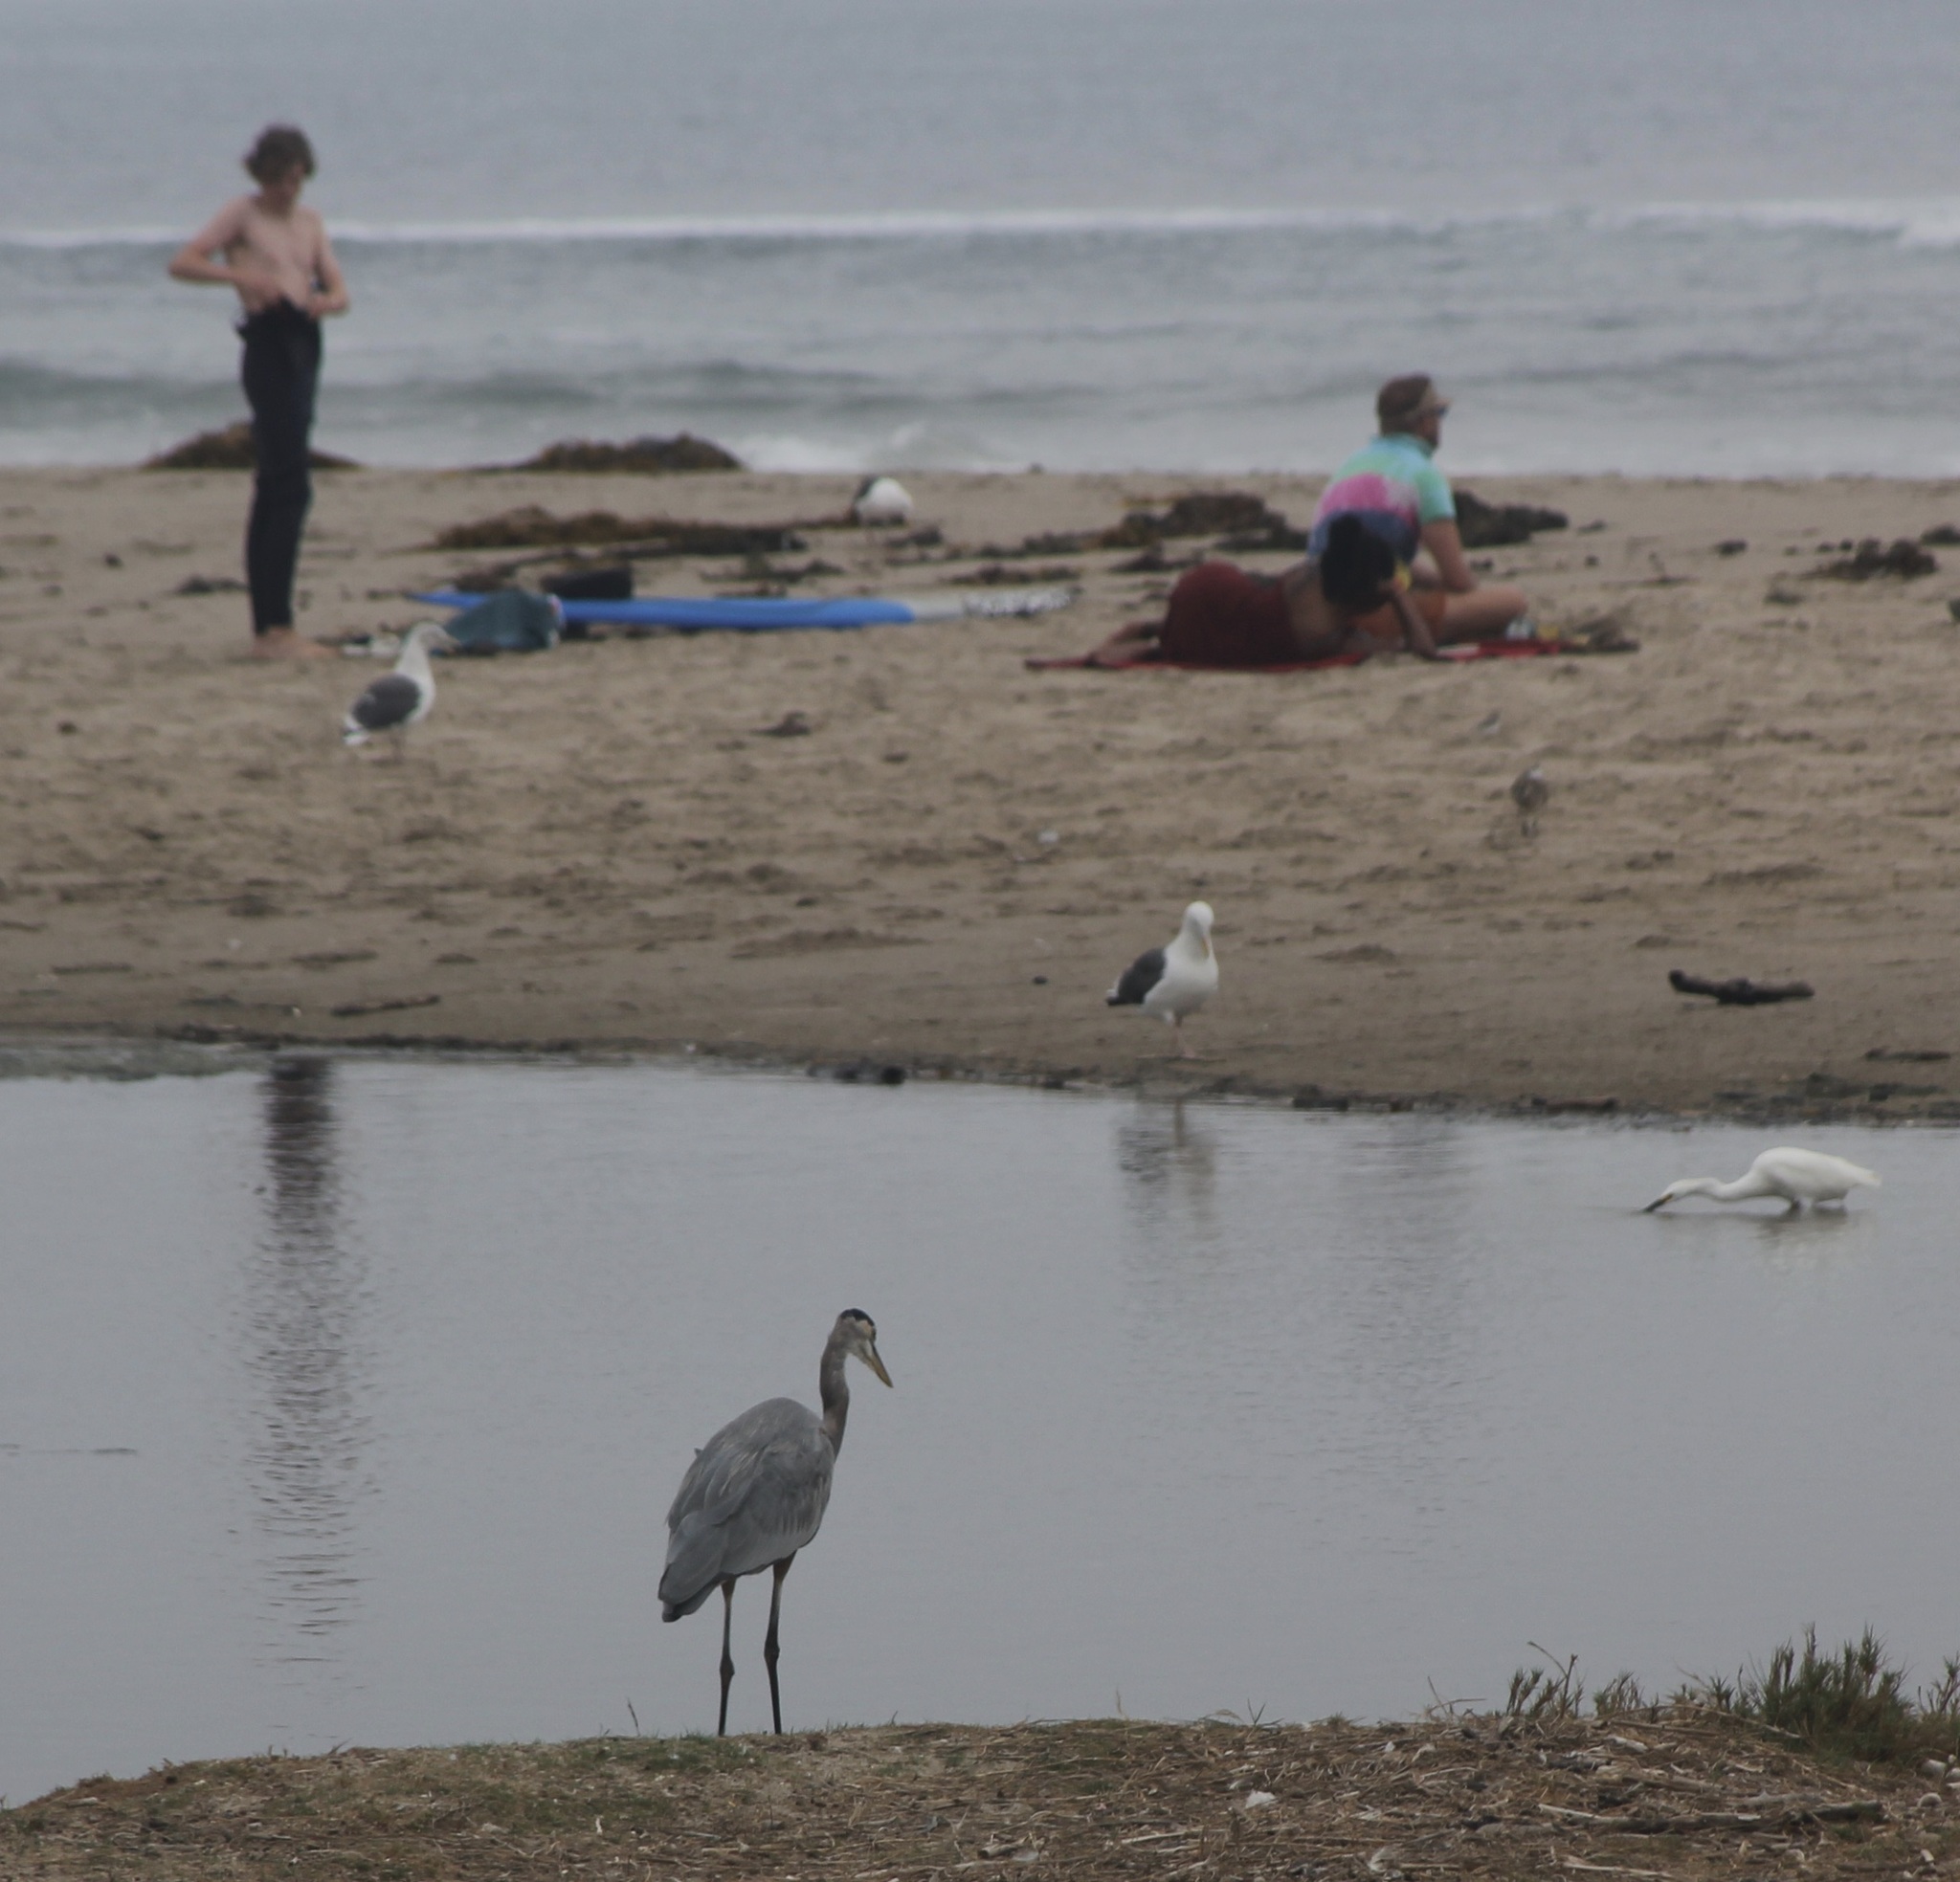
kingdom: Animalia
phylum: Chordata
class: Aves
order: Pelecaniformes
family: Ardeidae
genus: Ardea
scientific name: Ardea herodias
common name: Great blue heron
